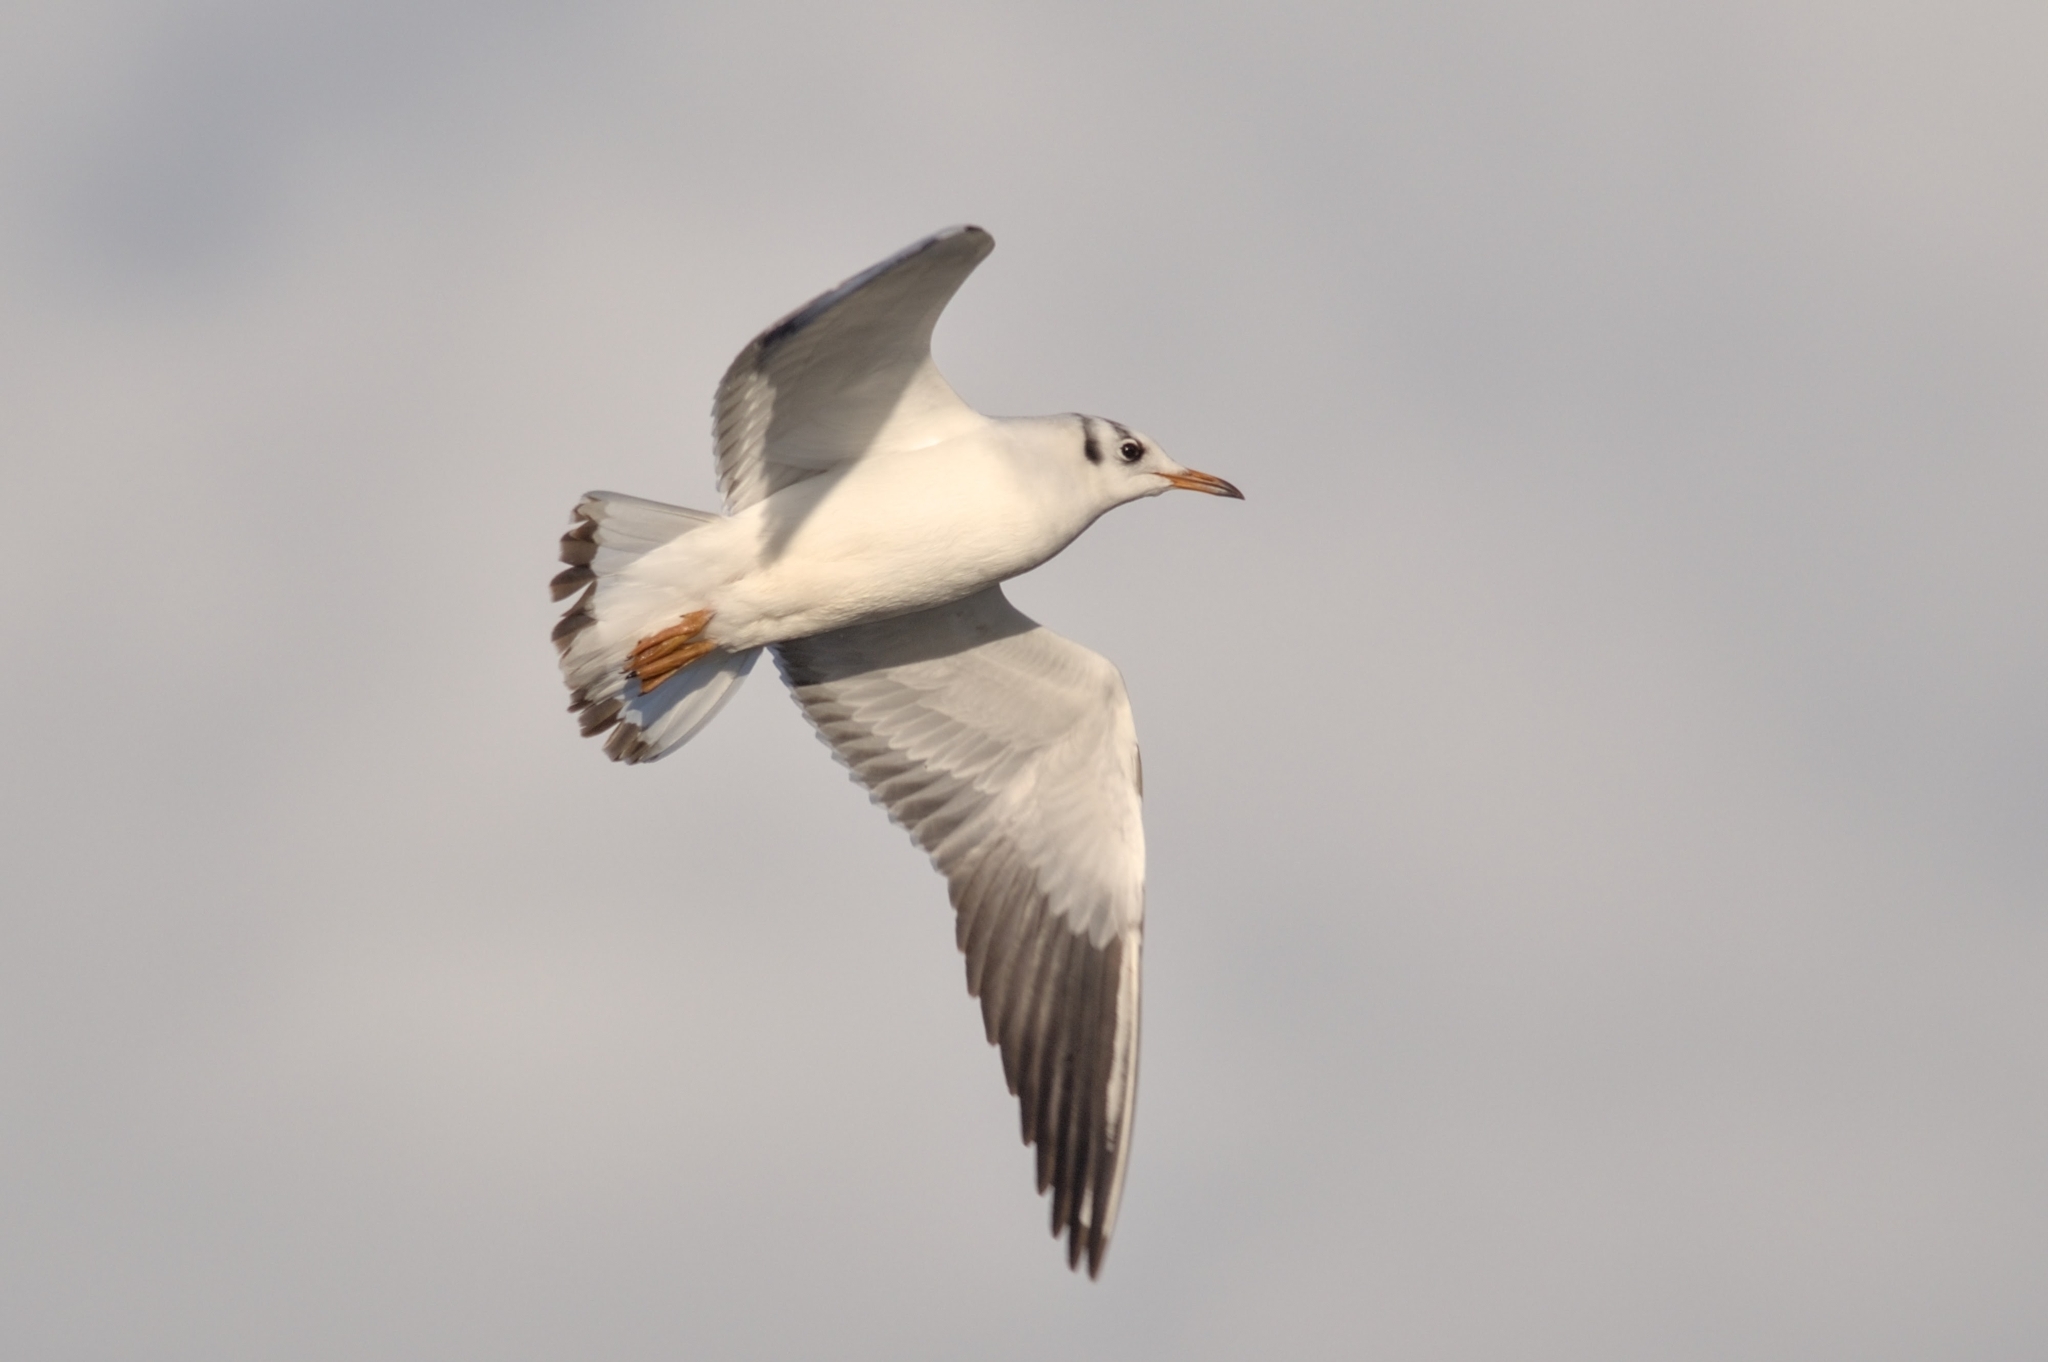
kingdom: Animalia
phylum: Chordata
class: Aves
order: Charadriiformes
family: Laridae
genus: Chroicocephalus
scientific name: Chroicocephalus ridibundus
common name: Black-headed gull
